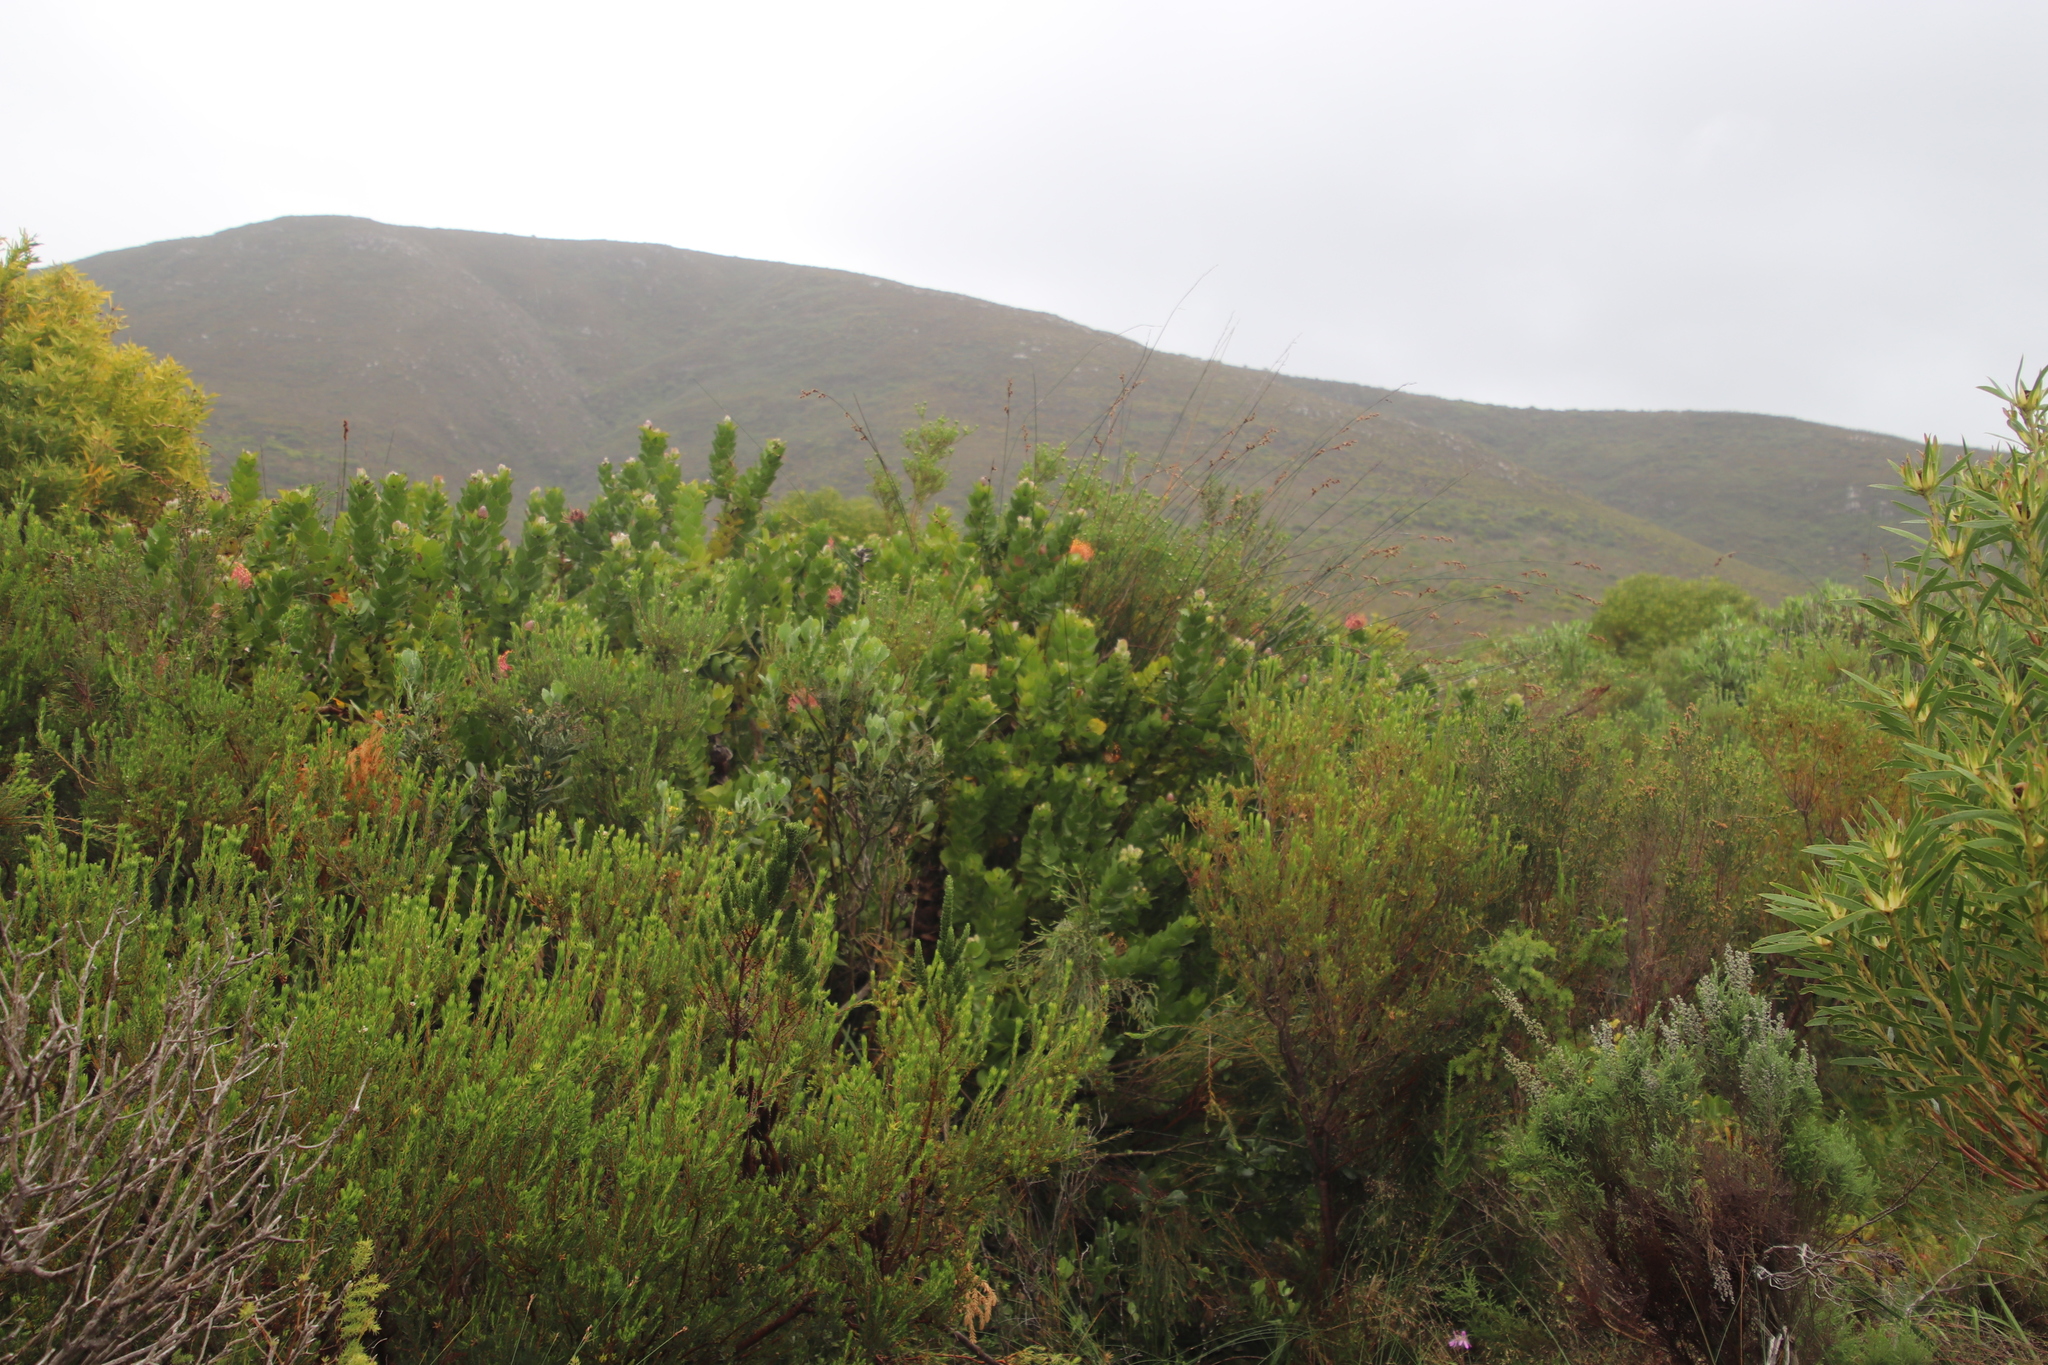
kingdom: Plantae
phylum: Tracheophyta
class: Magnoliopsida
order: Proteales
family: Proteaceae
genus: Leucospermum
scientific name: Leucospermum patersonii
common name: False tree pincushion
